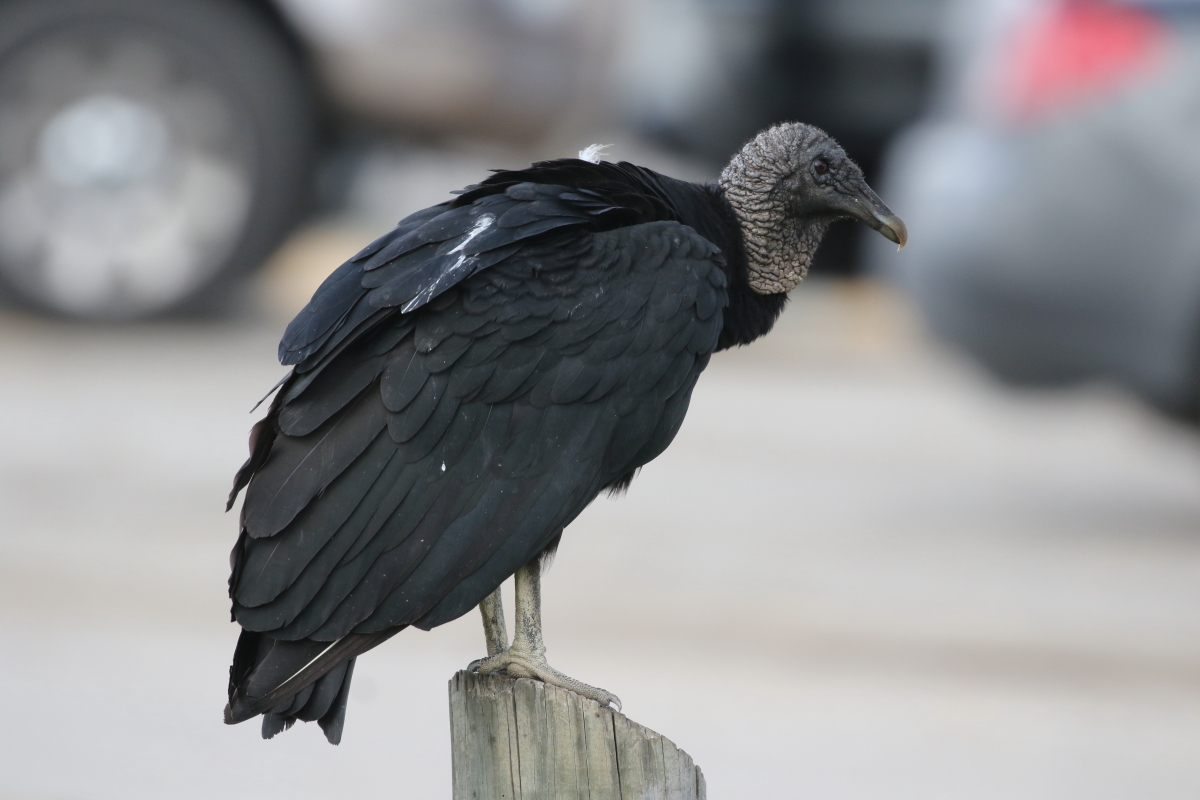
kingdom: Animalia
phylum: Chordata
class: Aves
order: Accipitriformes
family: Cathartidae
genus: Coragyps
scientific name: Coragyps atratus
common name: Black vulture
